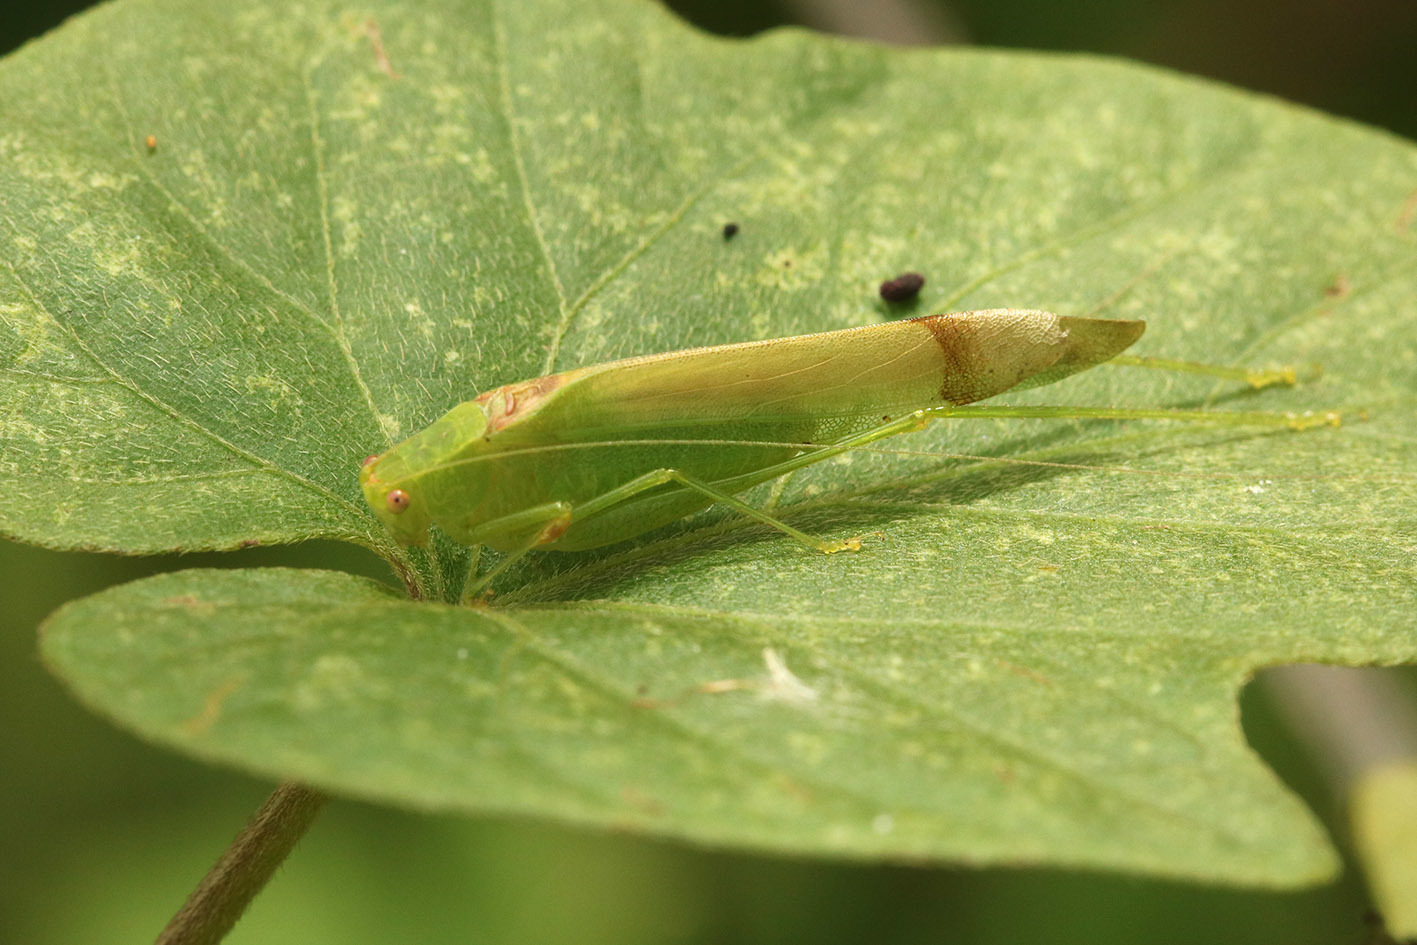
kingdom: Animalia
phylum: Arthropoda
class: Insecta
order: Orthoptera
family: Tettigoniidae
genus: Anaulacomera
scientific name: Anaulacomera sulcata
